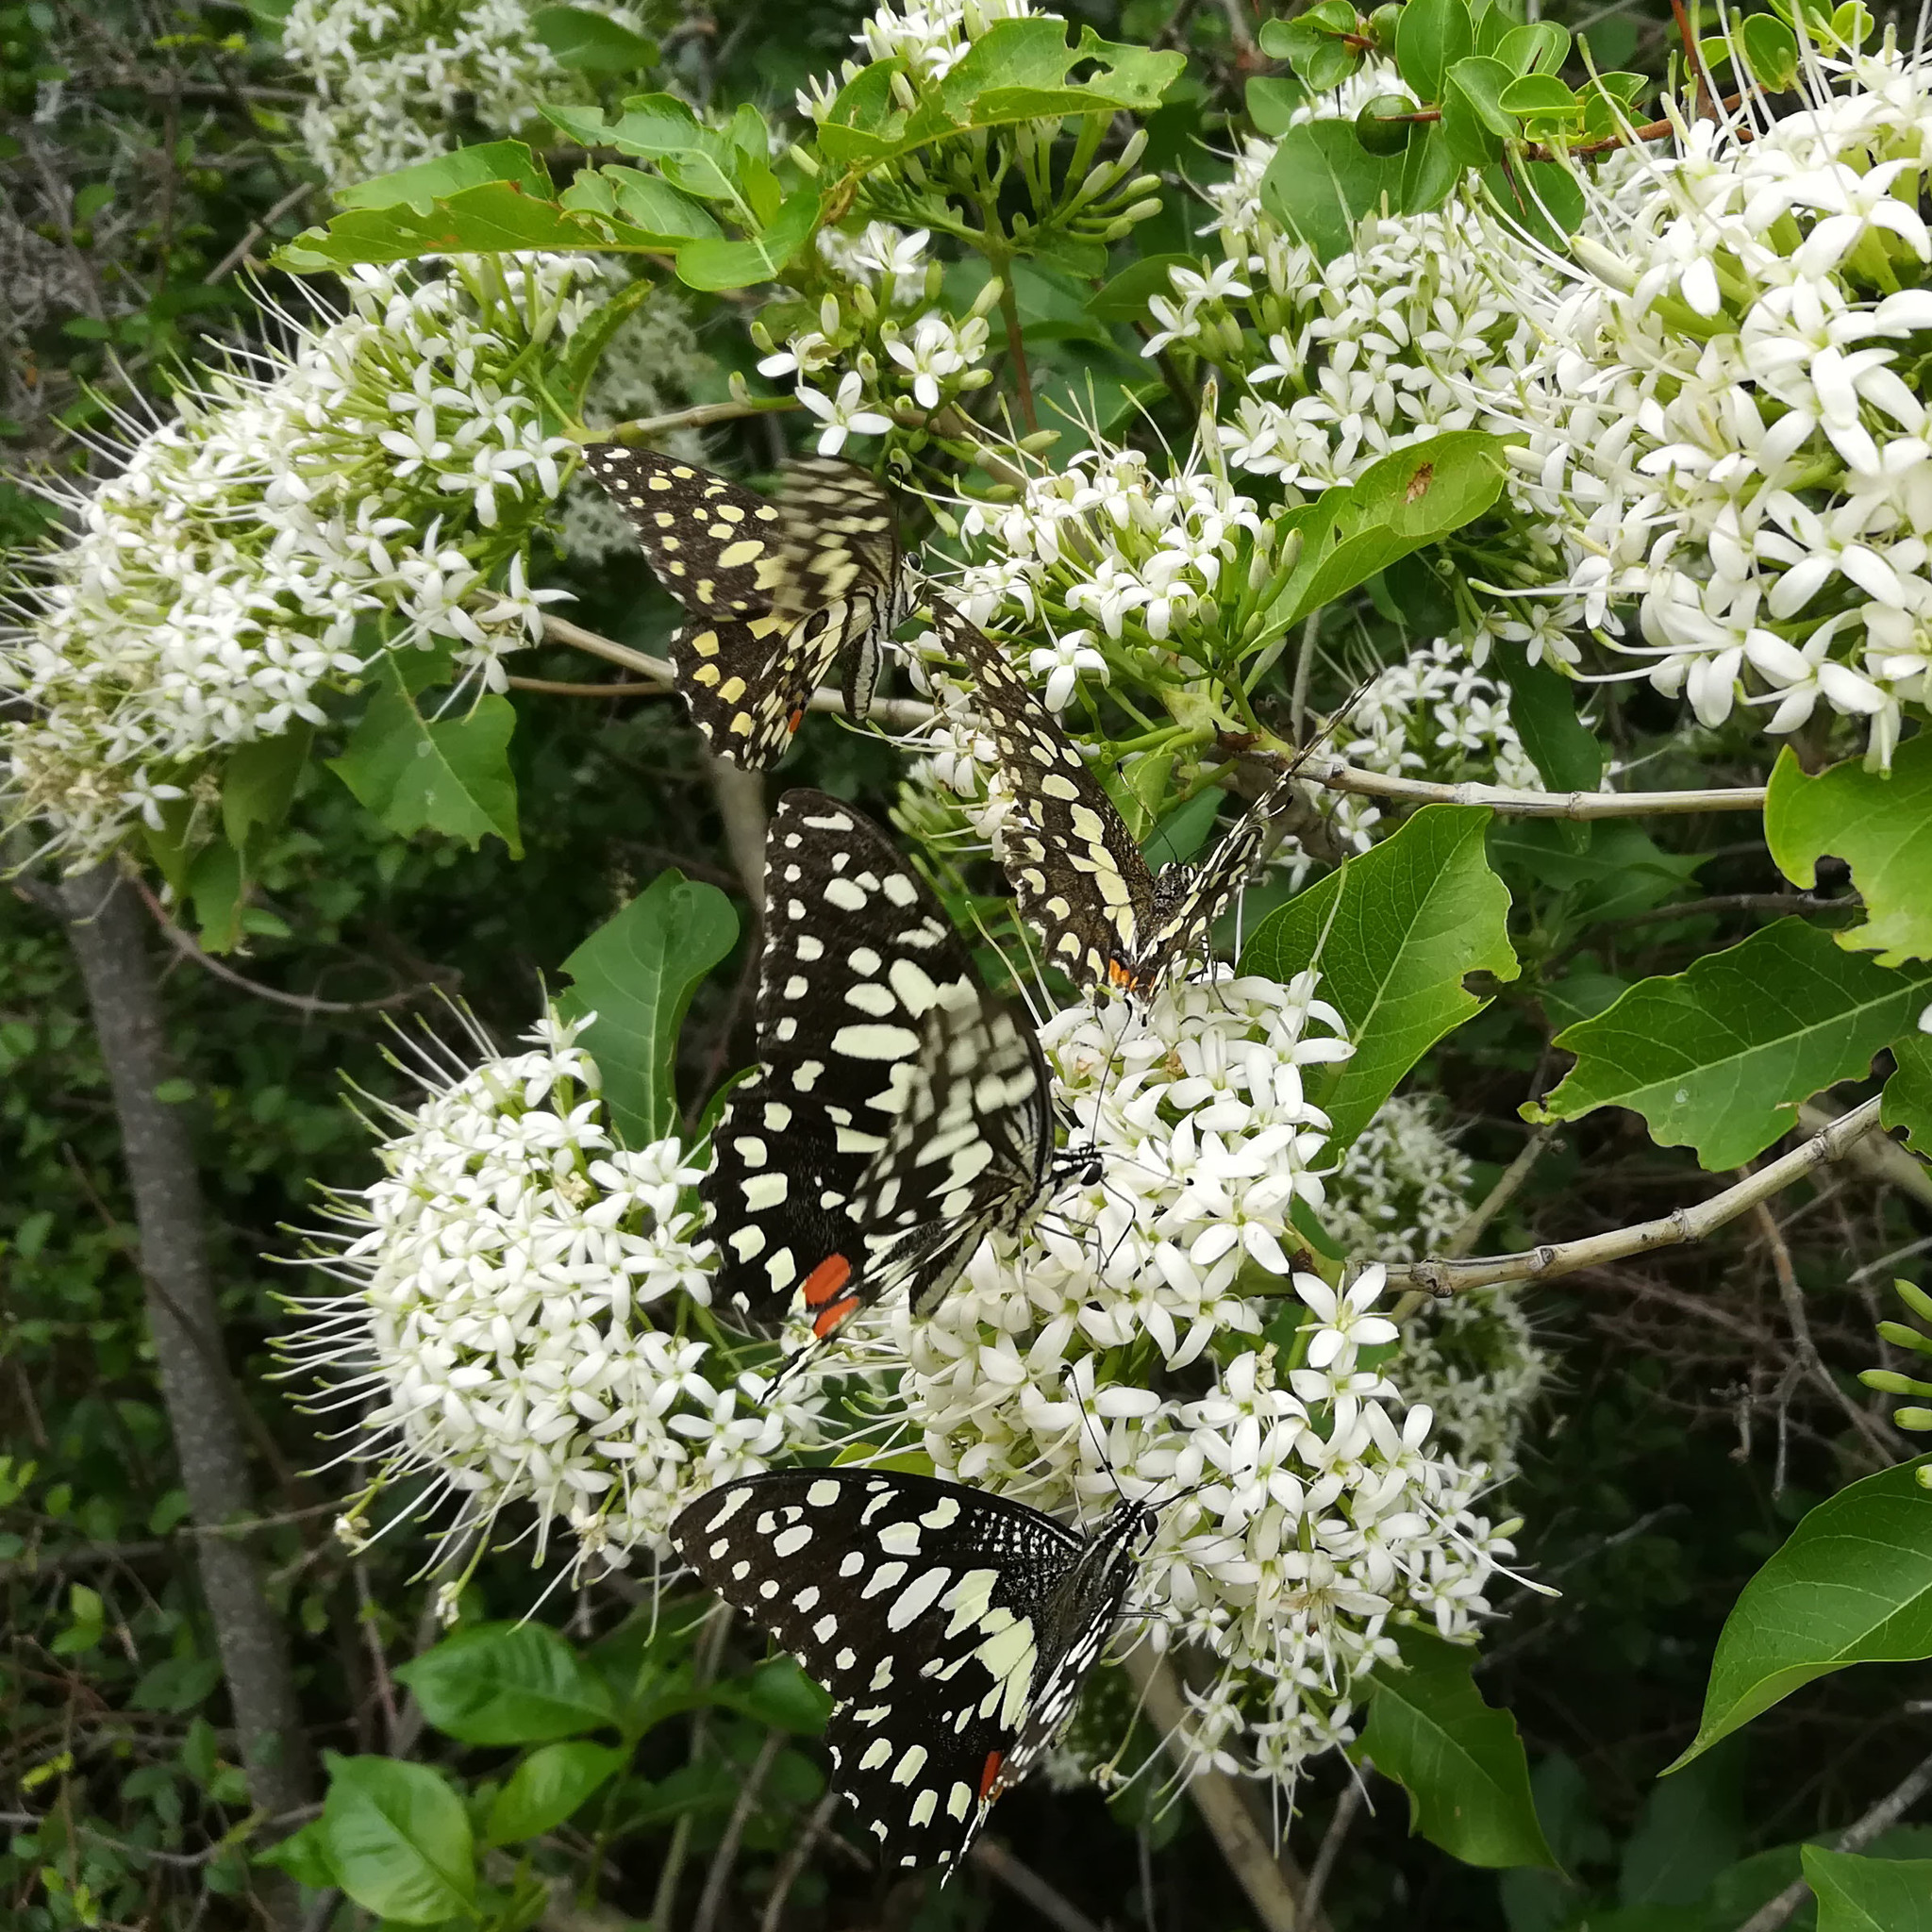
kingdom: Animalia
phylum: Arthropoda
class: Insecta
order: Lepidoptera
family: Papilionidae
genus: Papilio
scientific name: Papilio demoleus
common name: Lime butterfly
